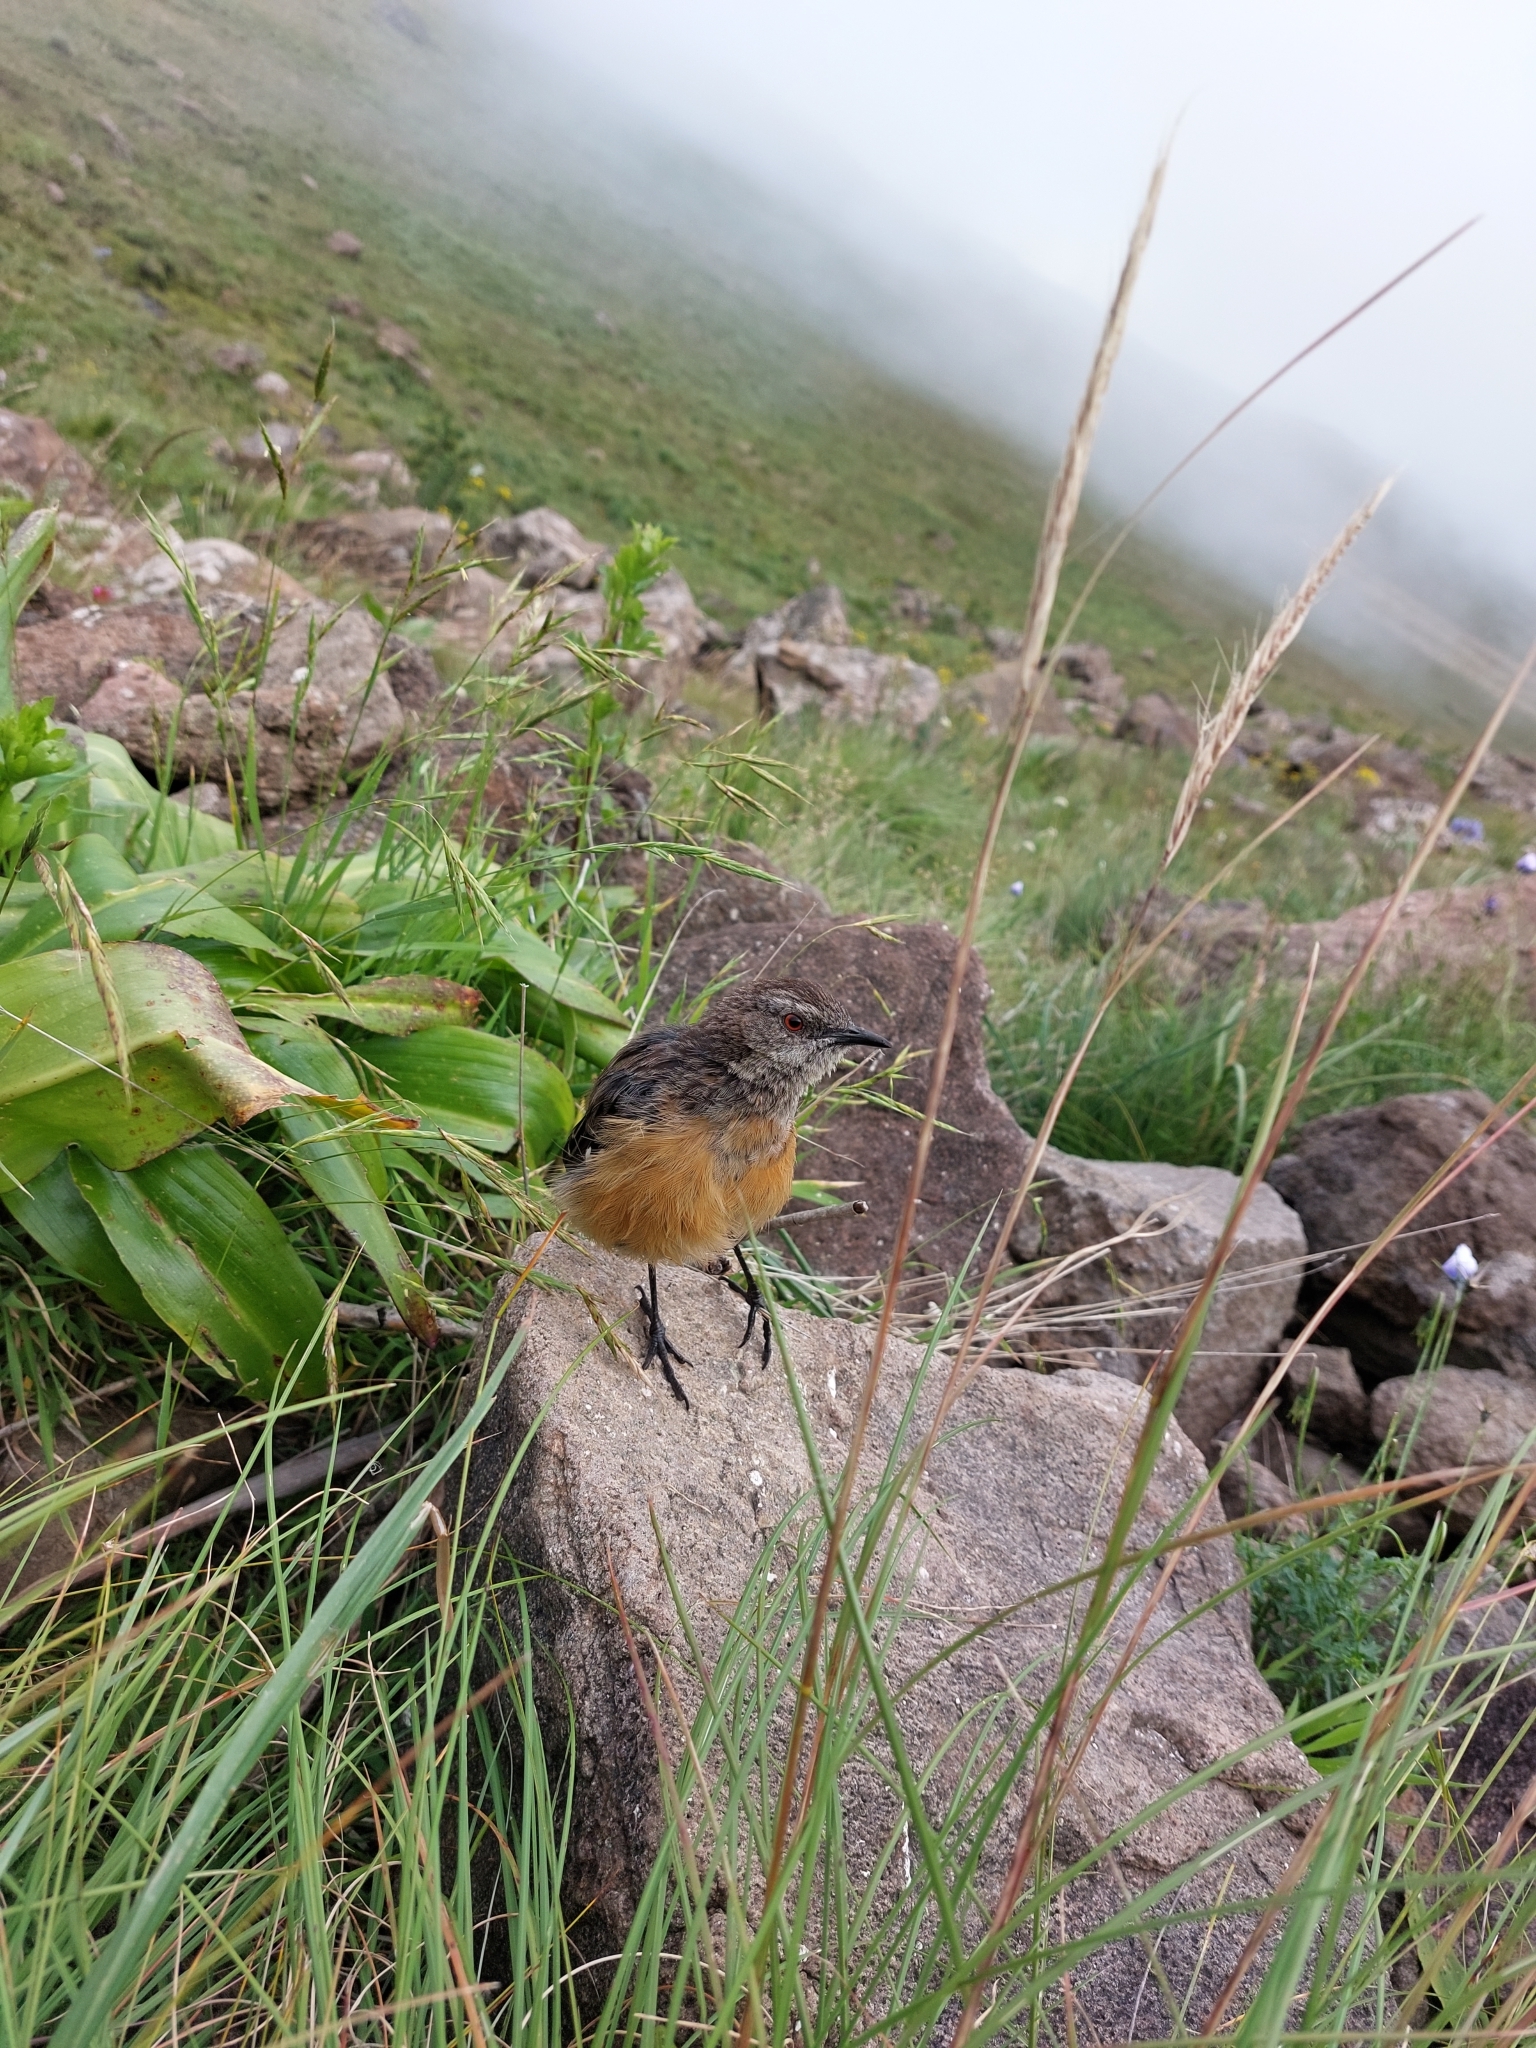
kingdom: Animalia
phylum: Chordata
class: Aves
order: Passeriformes
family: Chaetopidae
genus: Chaetops
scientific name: Chaetops aurantius
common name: Drakensberg rockjumper
